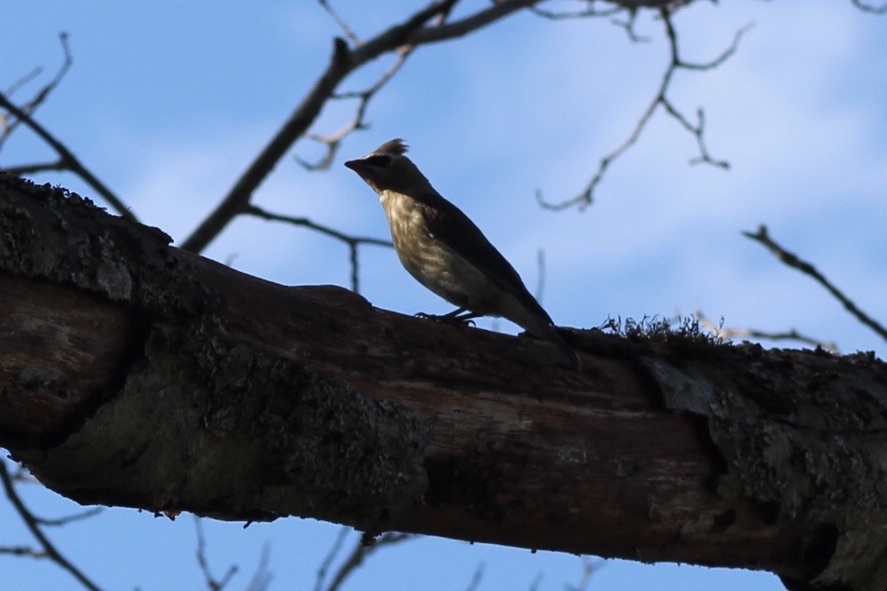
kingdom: Animalia
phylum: Chordata
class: Aves
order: Passeriformes
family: Bombycillidae
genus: Bombycilla
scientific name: Bombycilla cedrorum
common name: Cedar waxwing
